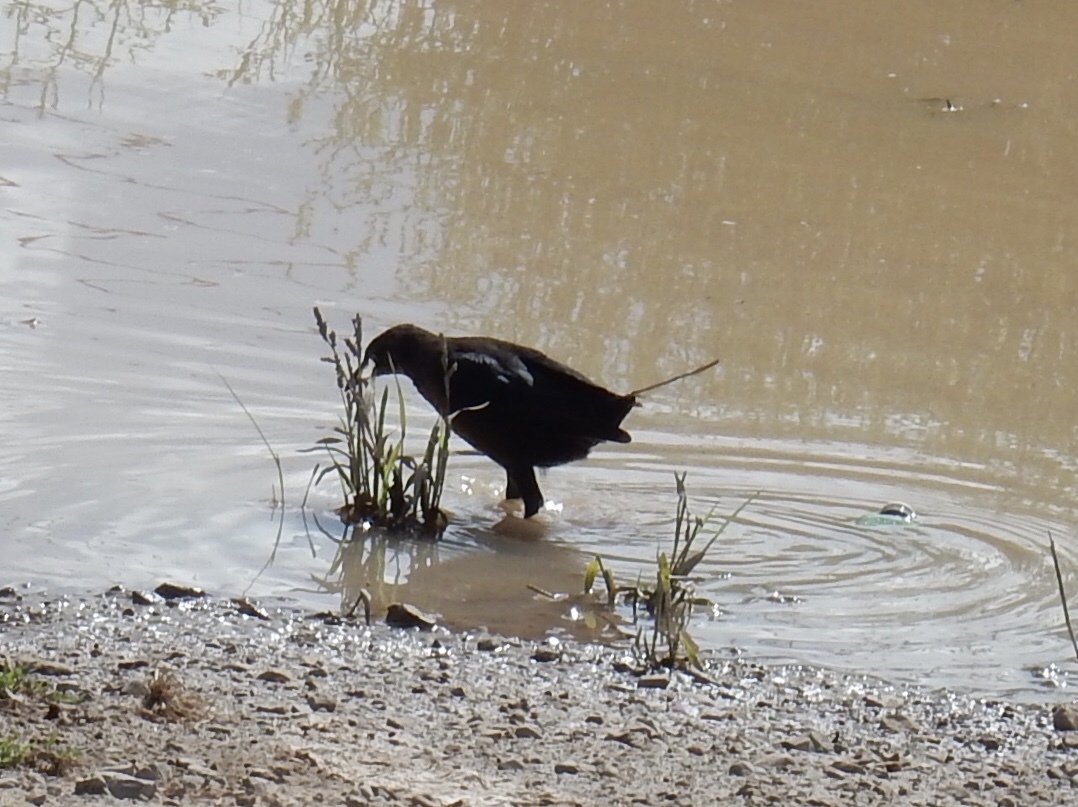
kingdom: Animalia
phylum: Chordata
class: Aves
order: Passeriformes
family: Icteridae
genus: Quiscalus
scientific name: Quiscalus mexicanus
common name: Great-tailed grackle
